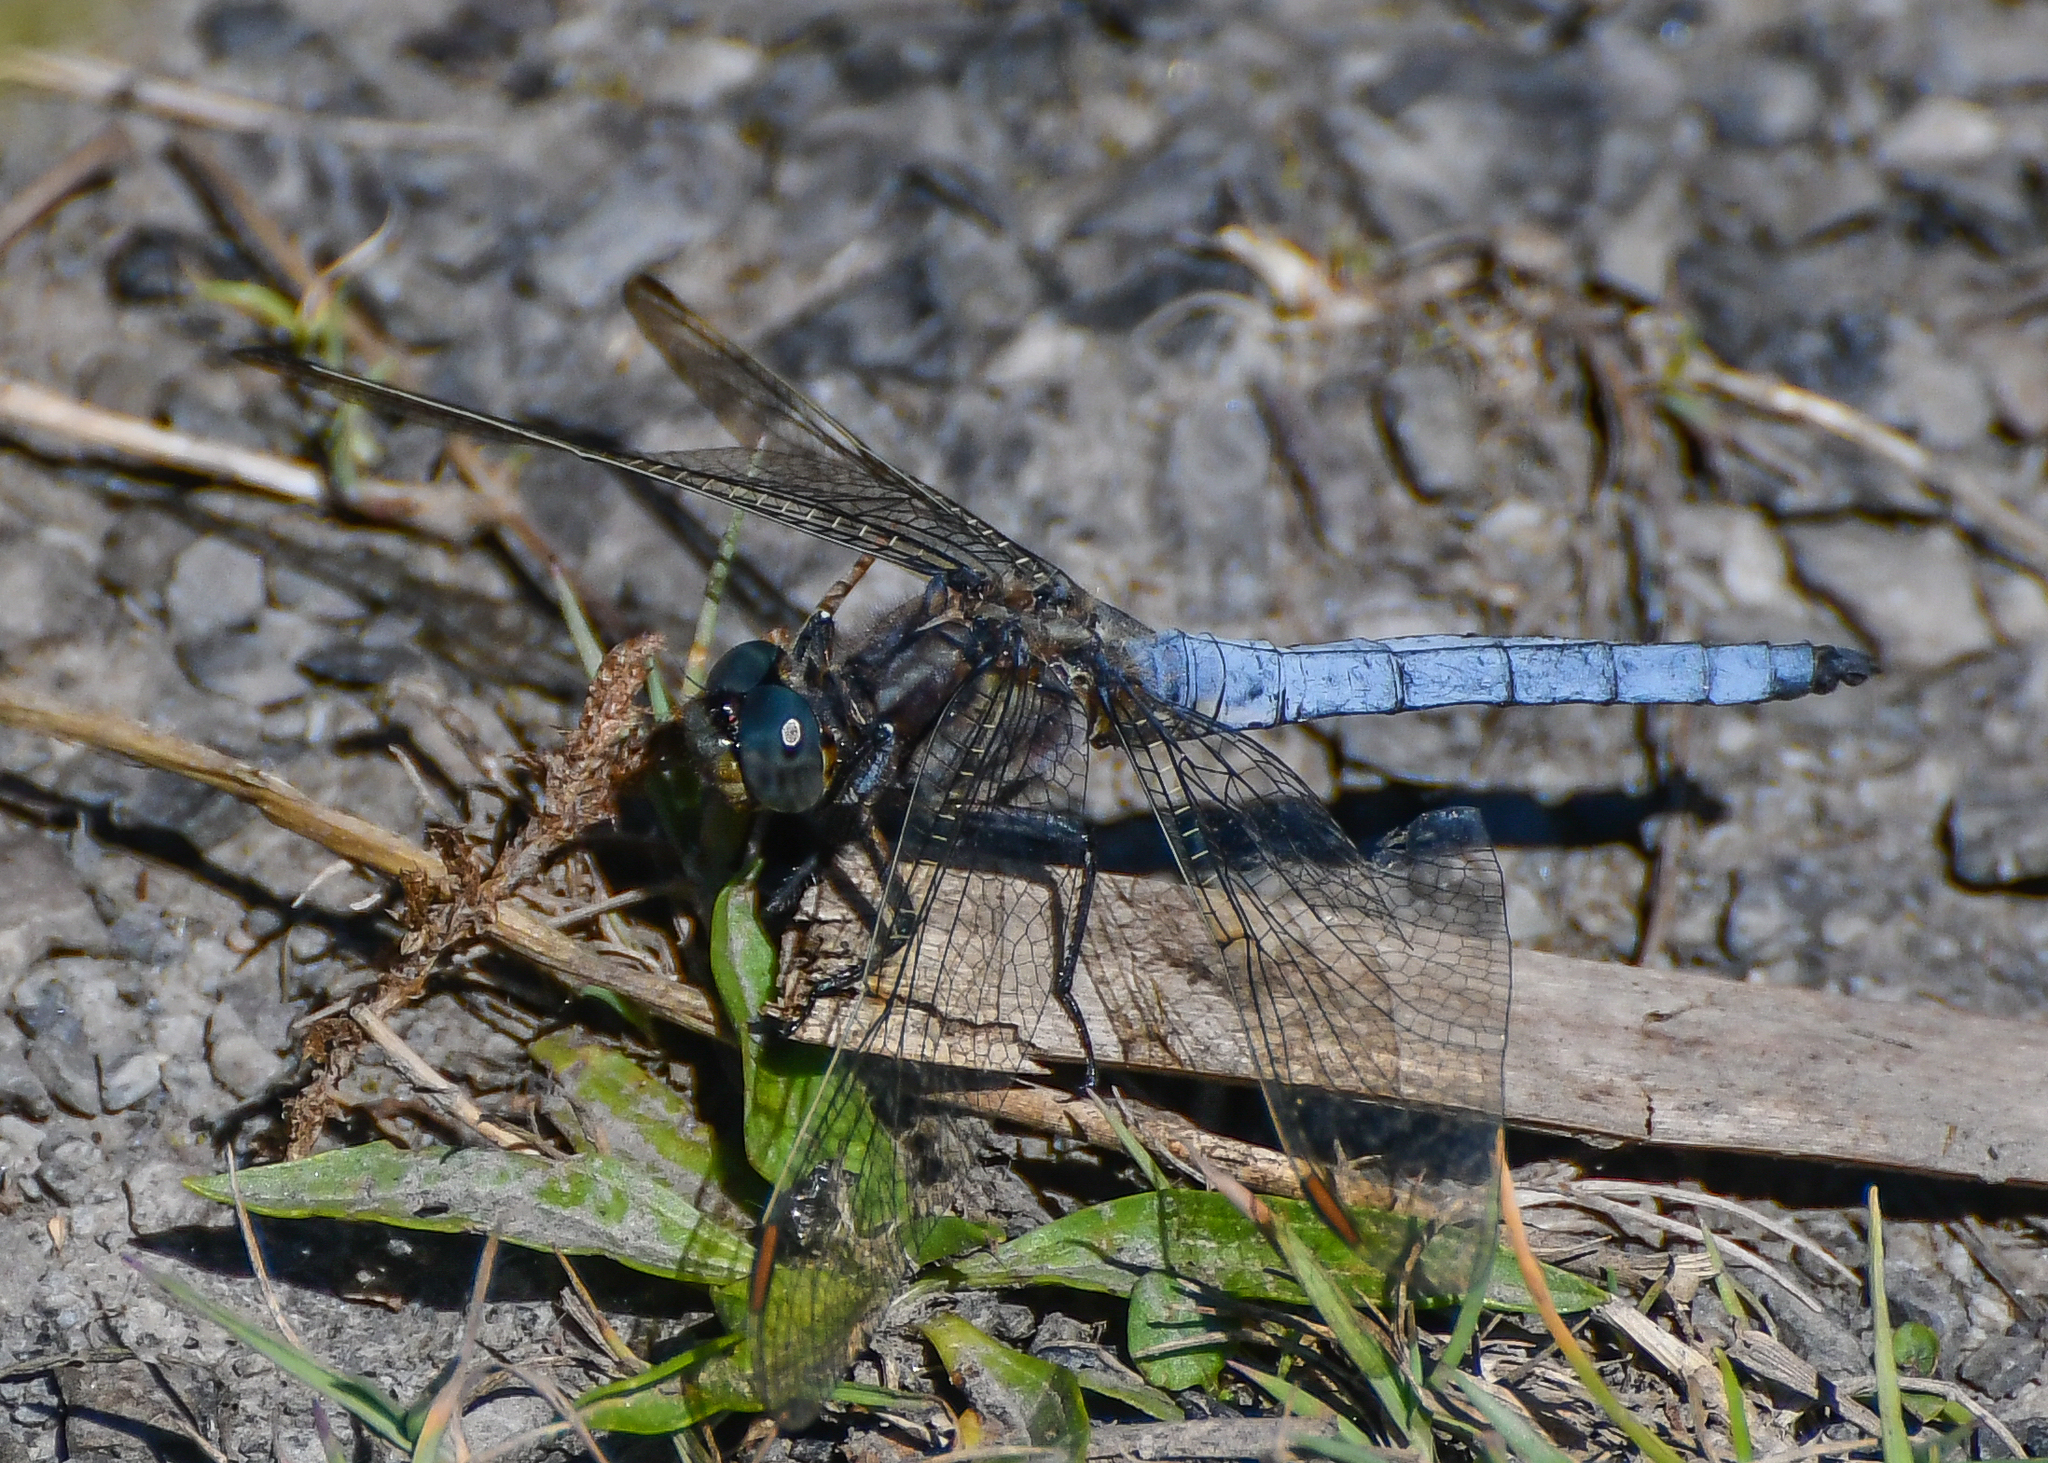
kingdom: Animalia
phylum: Arthropoda
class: Insecta
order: Odonata
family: Libellulidae
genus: Orthetrum
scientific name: Orthetrum coerulescens
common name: Keeled skimmer
